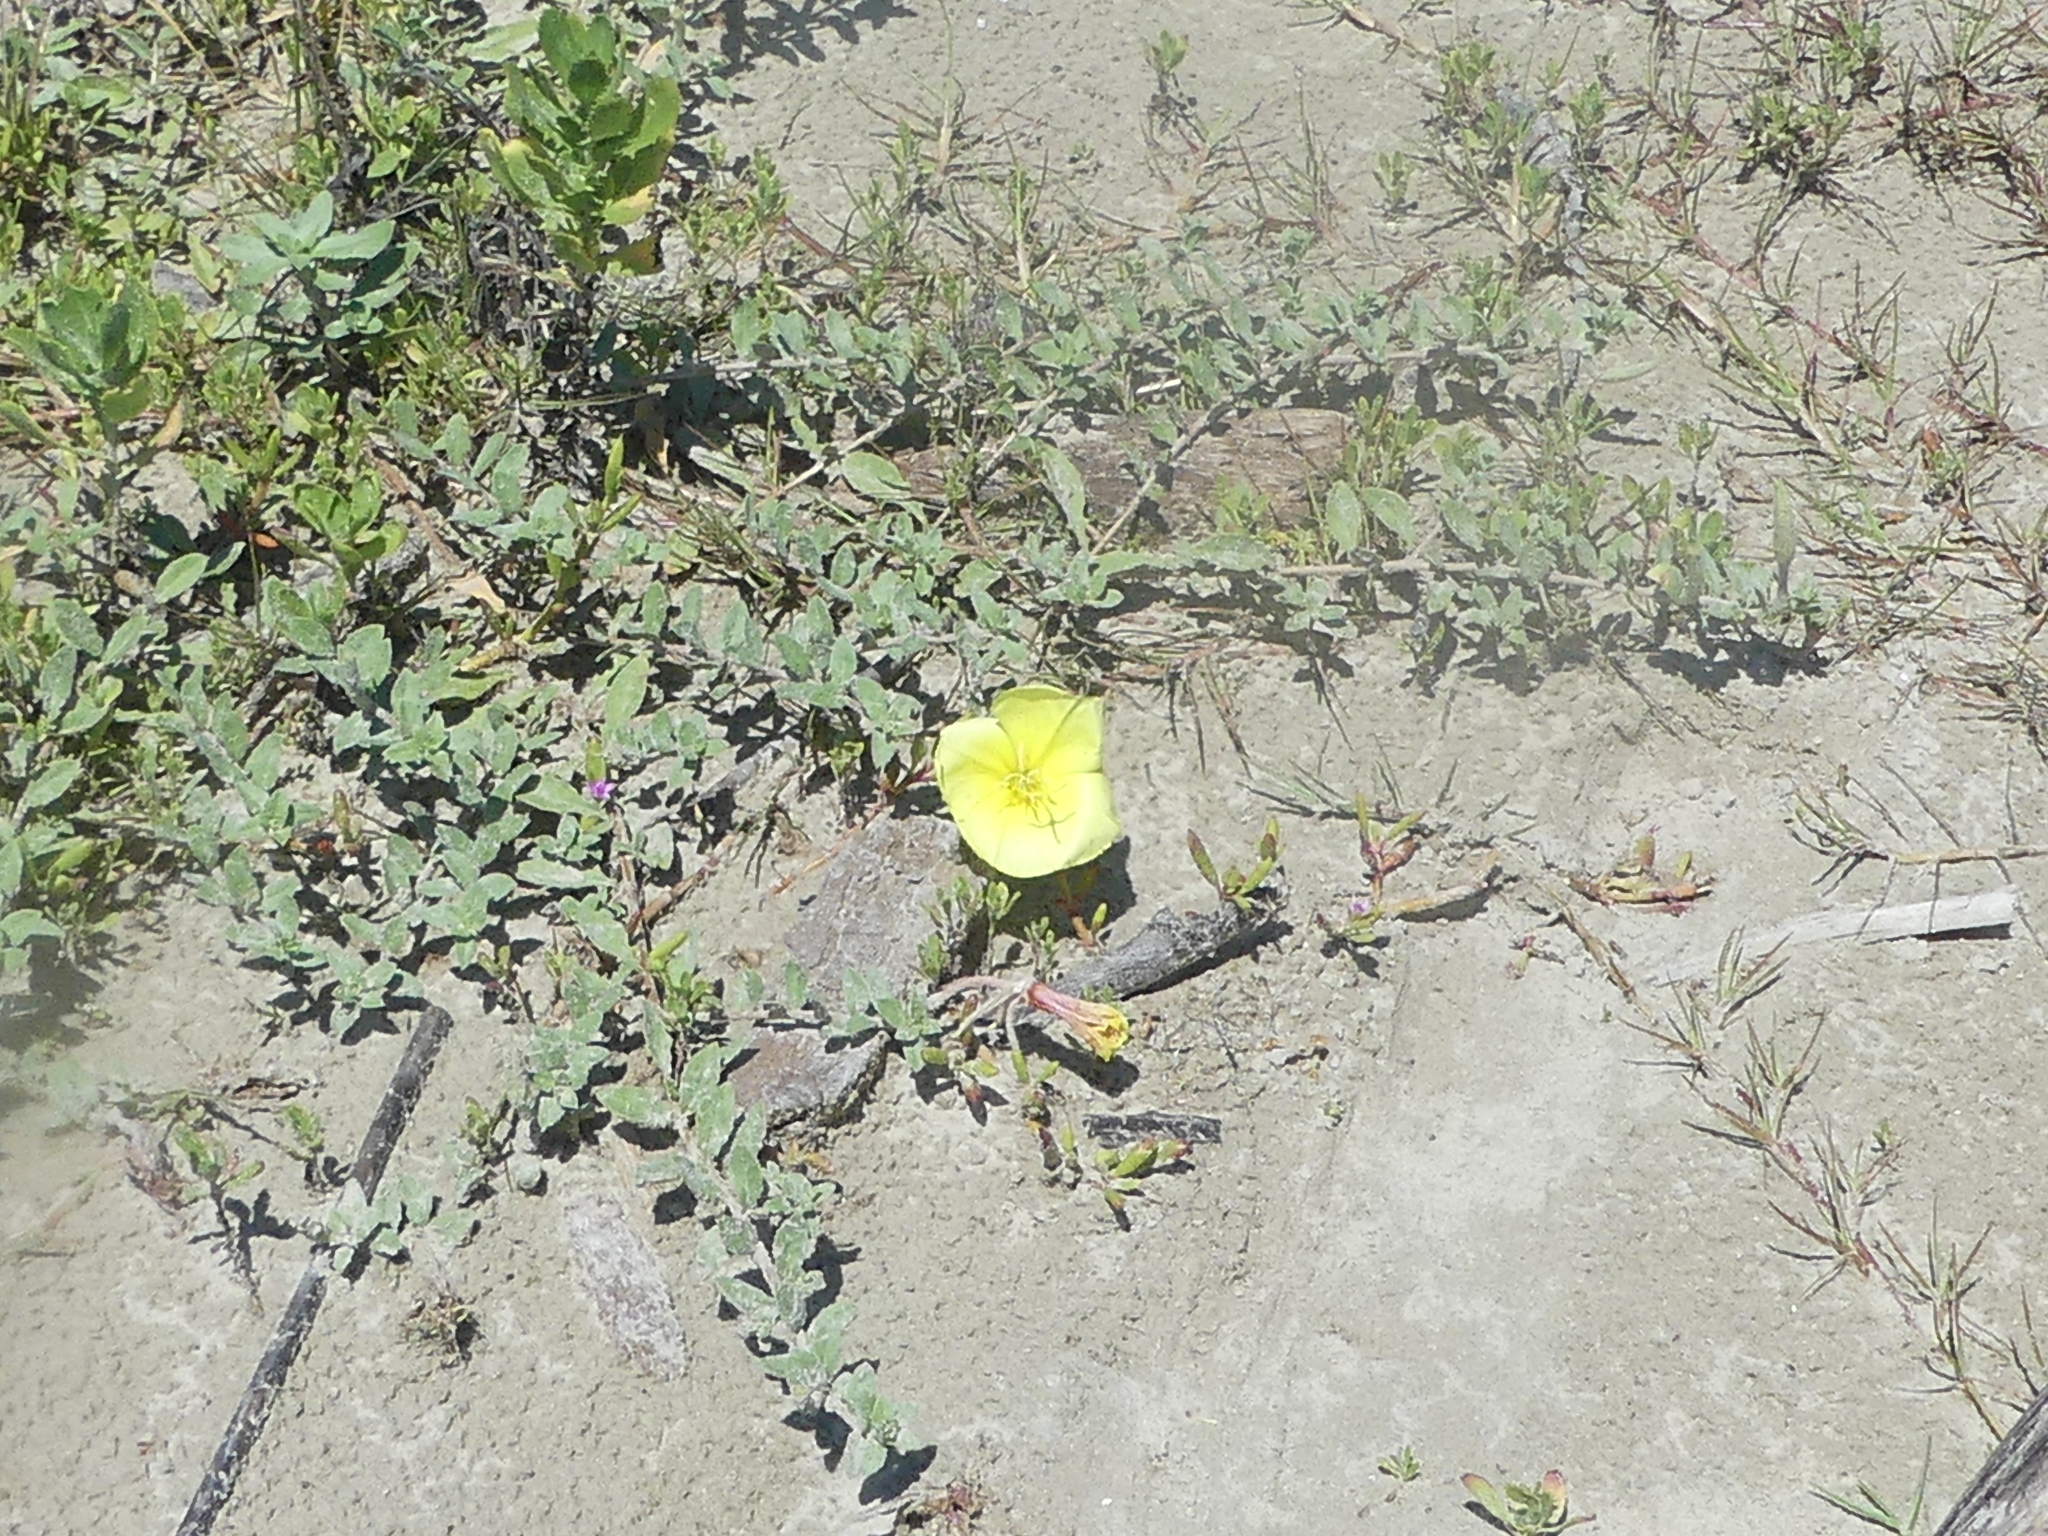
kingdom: Plantae
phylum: Tracheophyta
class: Magnoliopsida
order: Myrtales
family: Onagraceae
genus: Oenothera
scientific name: Oenothera drummondii
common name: Beach evening-primrose
